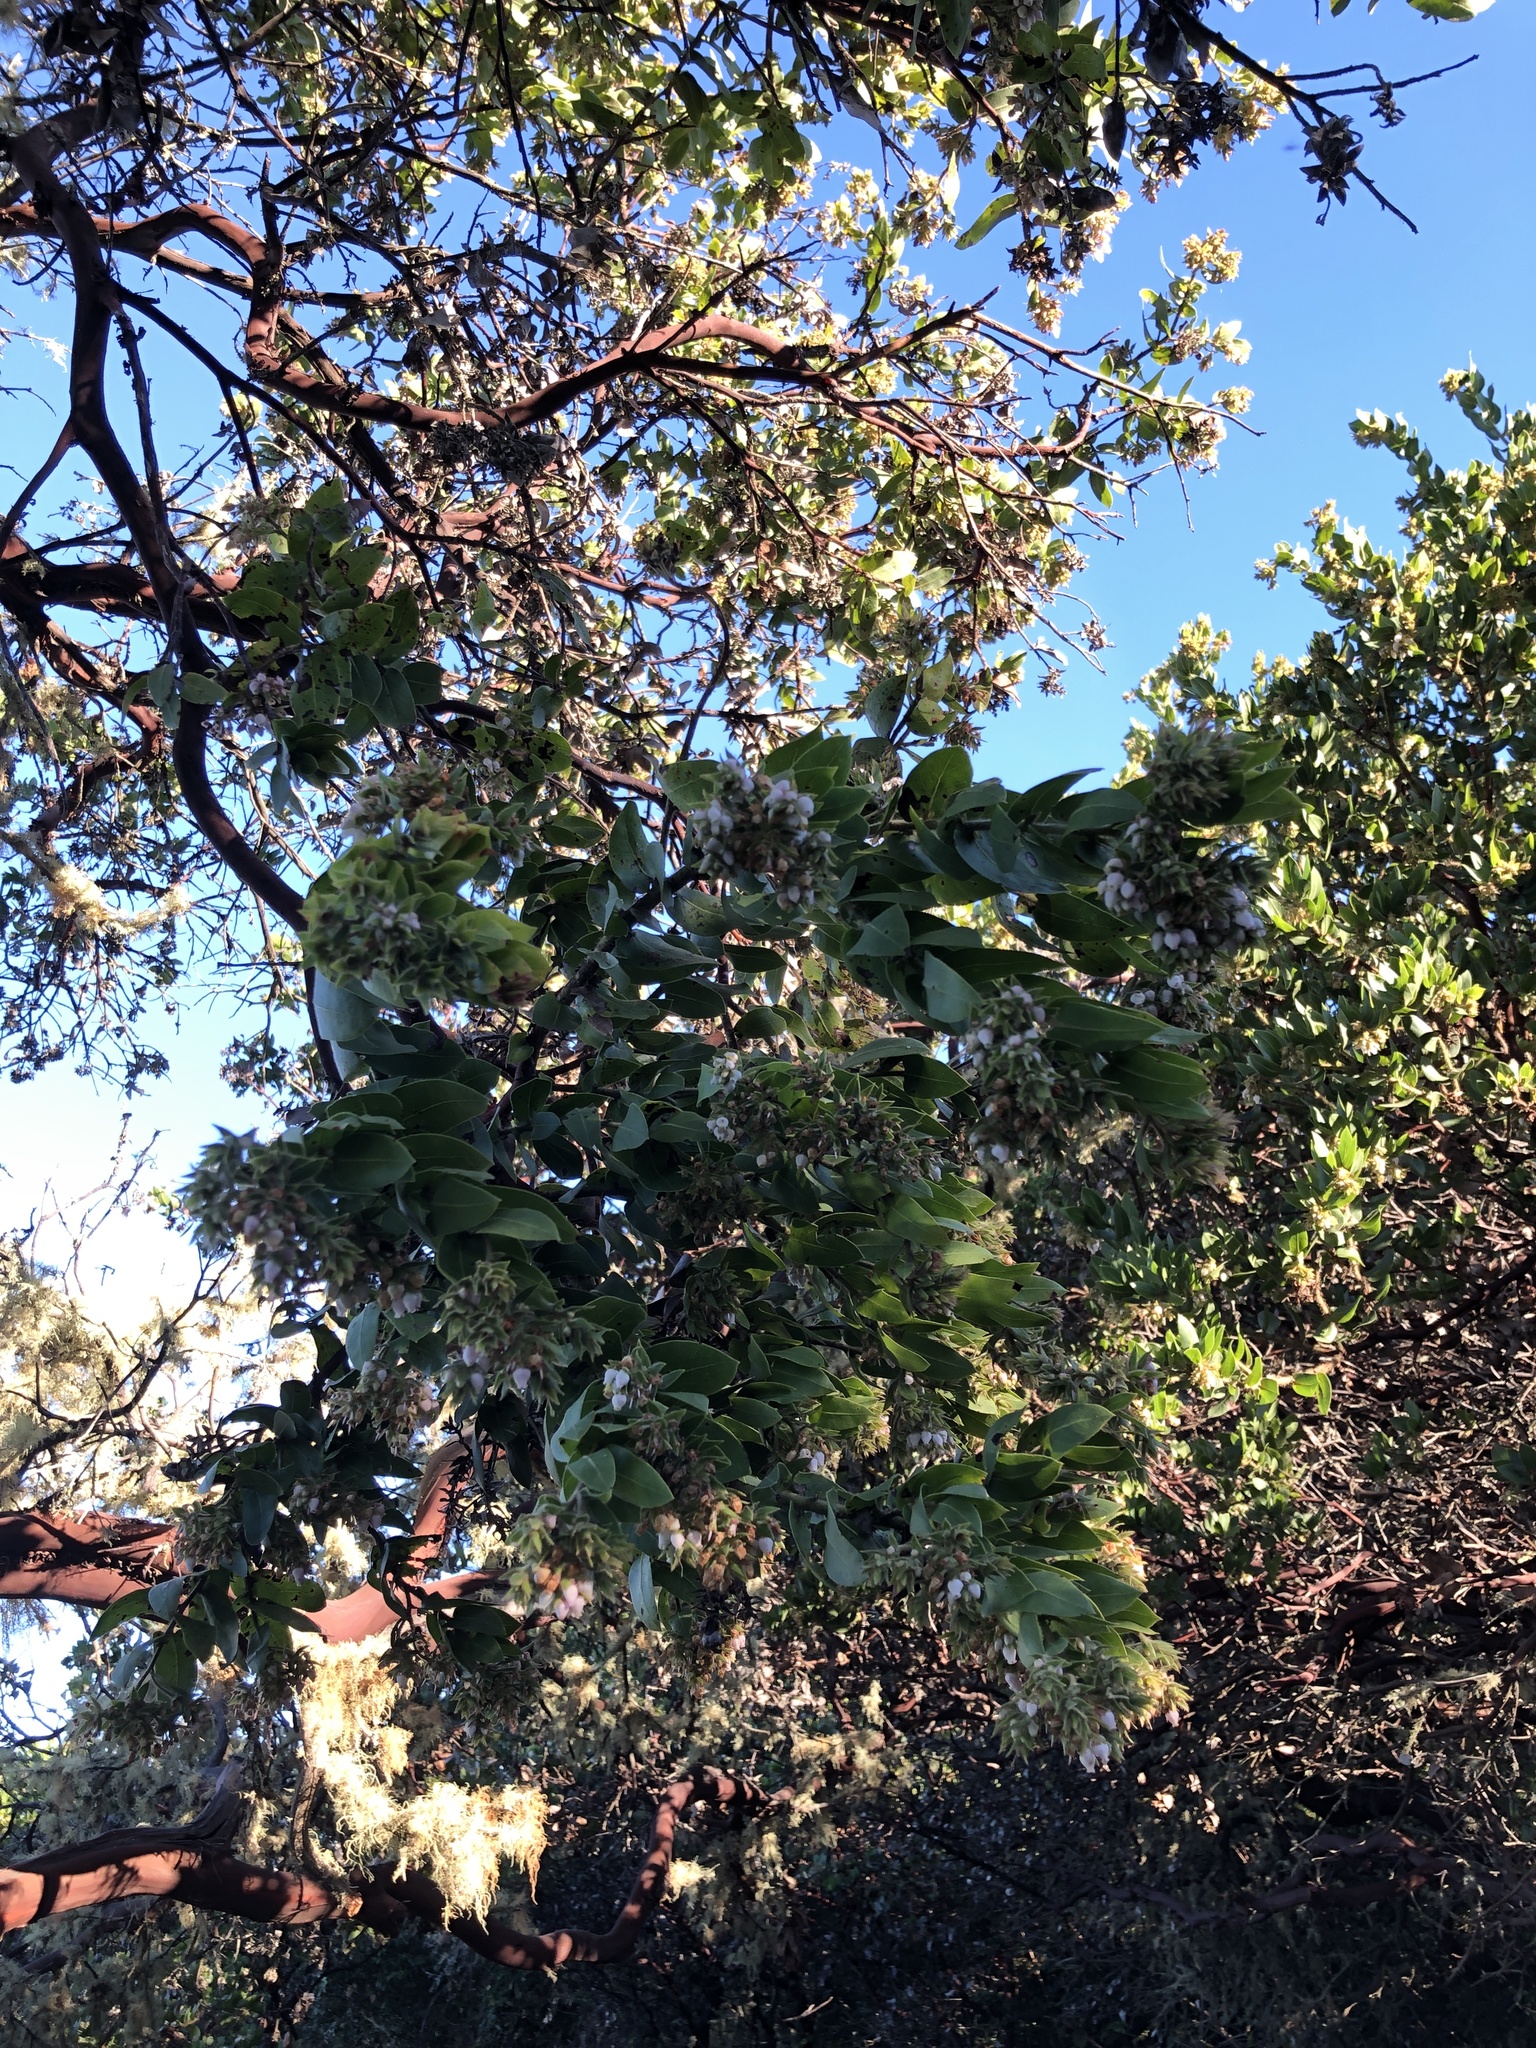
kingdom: Plantae
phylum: Tracheophyta
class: Magnoliopsida
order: Ericales
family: Ericaceae
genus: Arctostaphylos
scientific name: Arctostaphylos montaraensis
